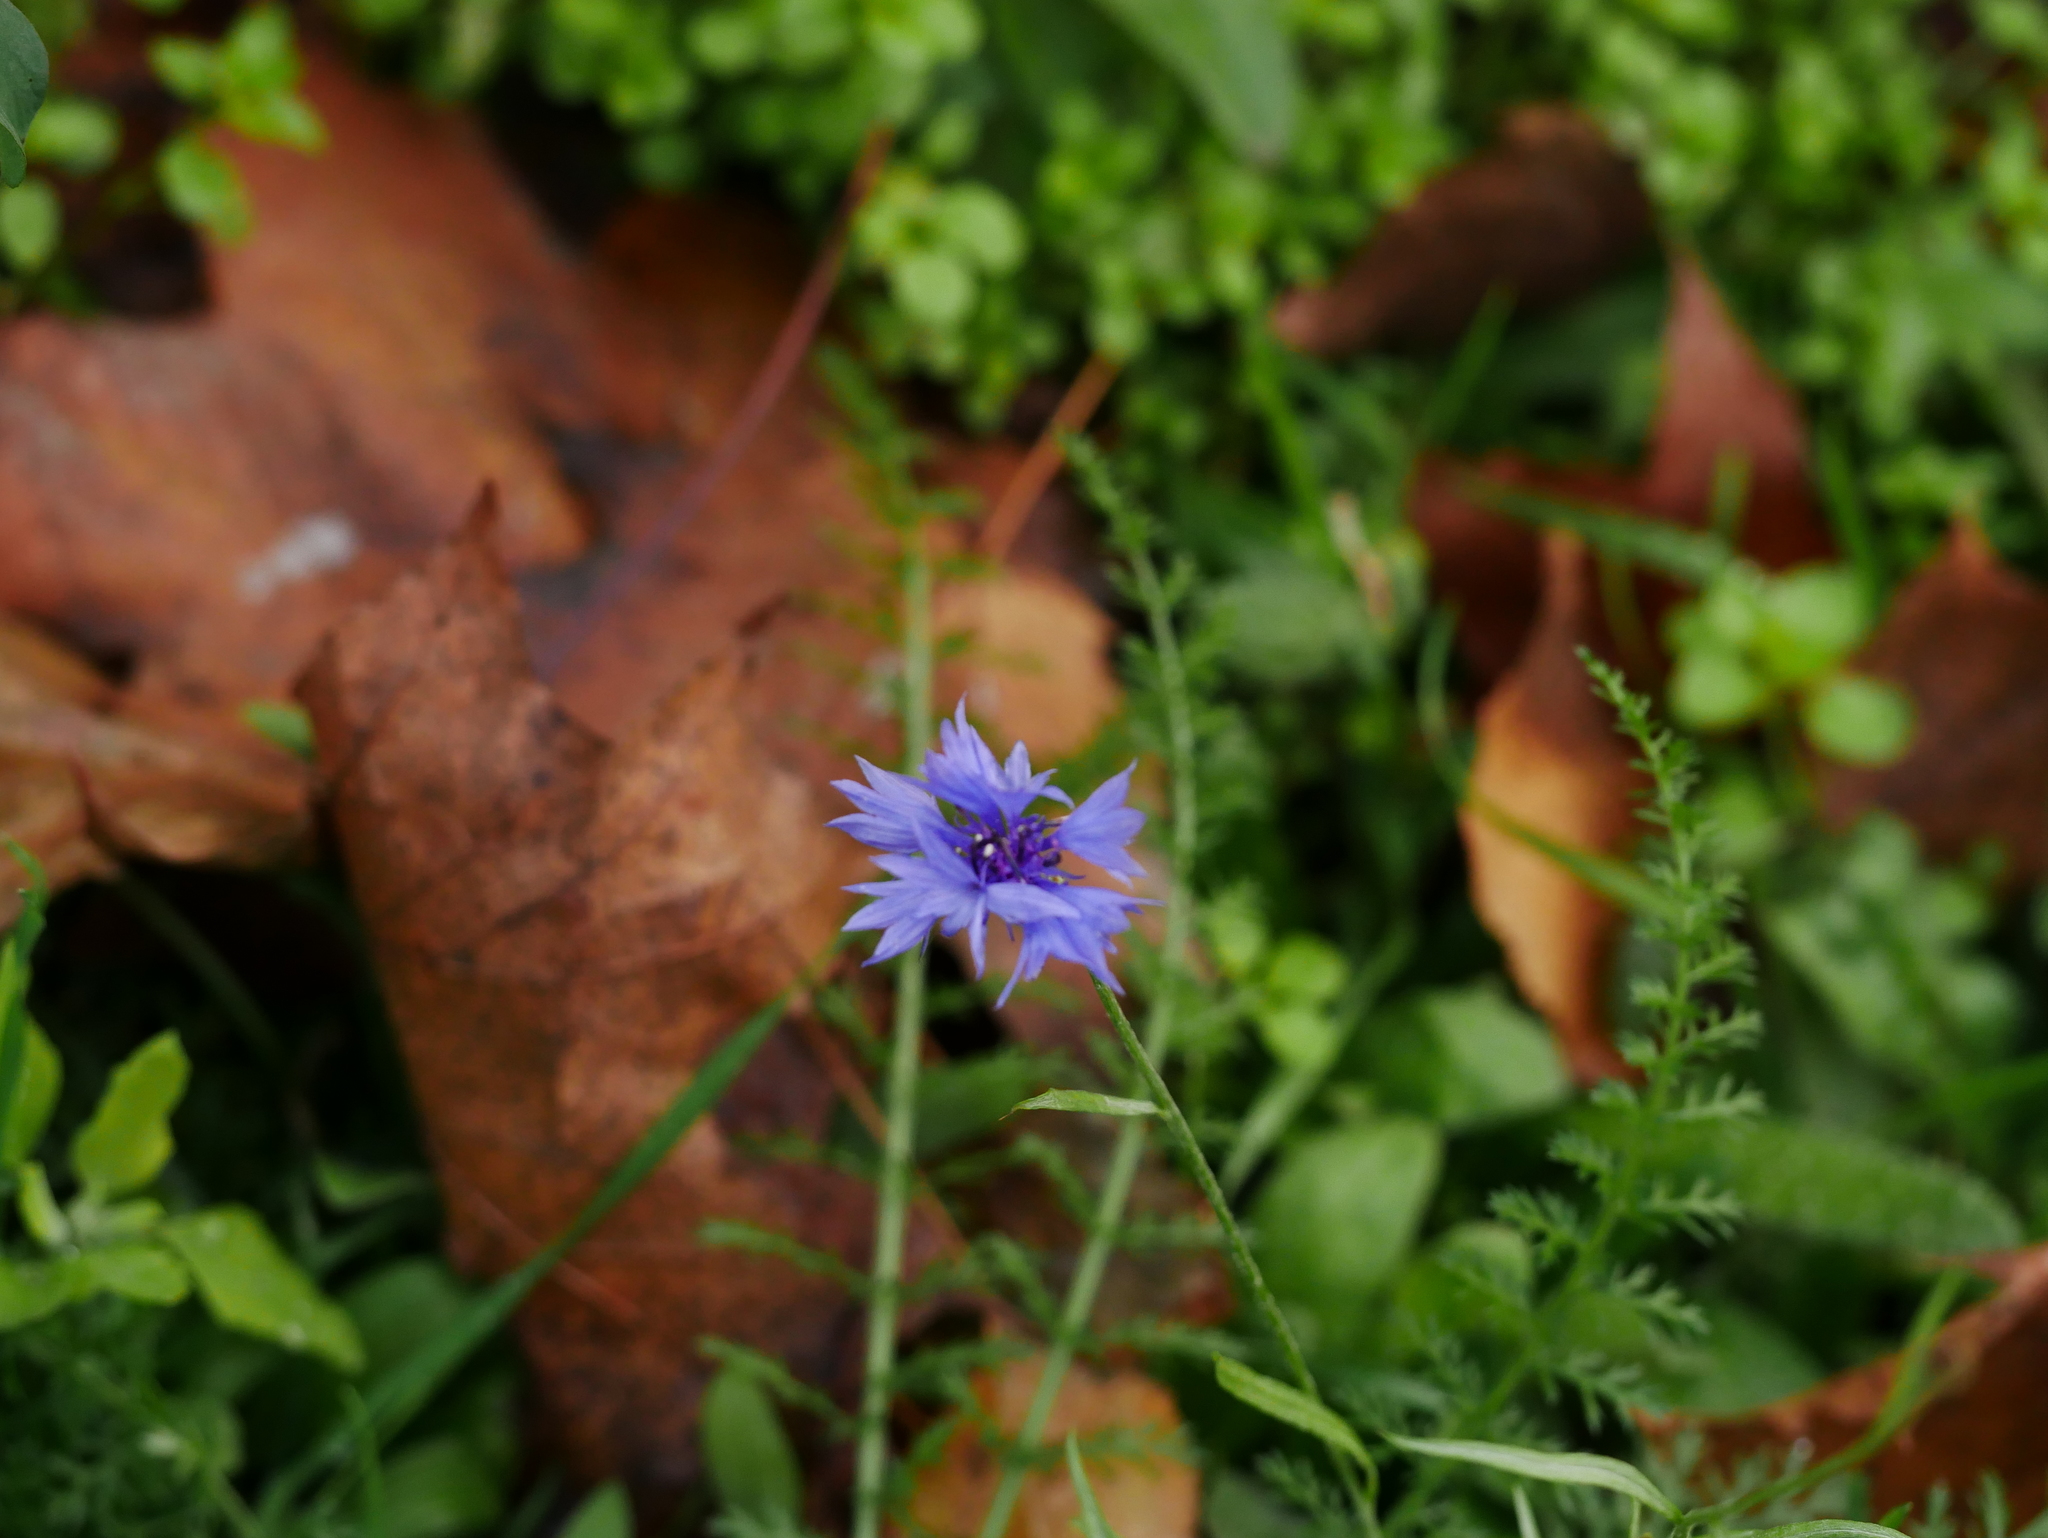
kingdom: Plantae
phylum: Tracheophyta
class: Magnoliopsida
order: Asterales
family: Asteraceae
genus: Centaurea
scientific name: Centaurea cyanus
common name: Cornflower
